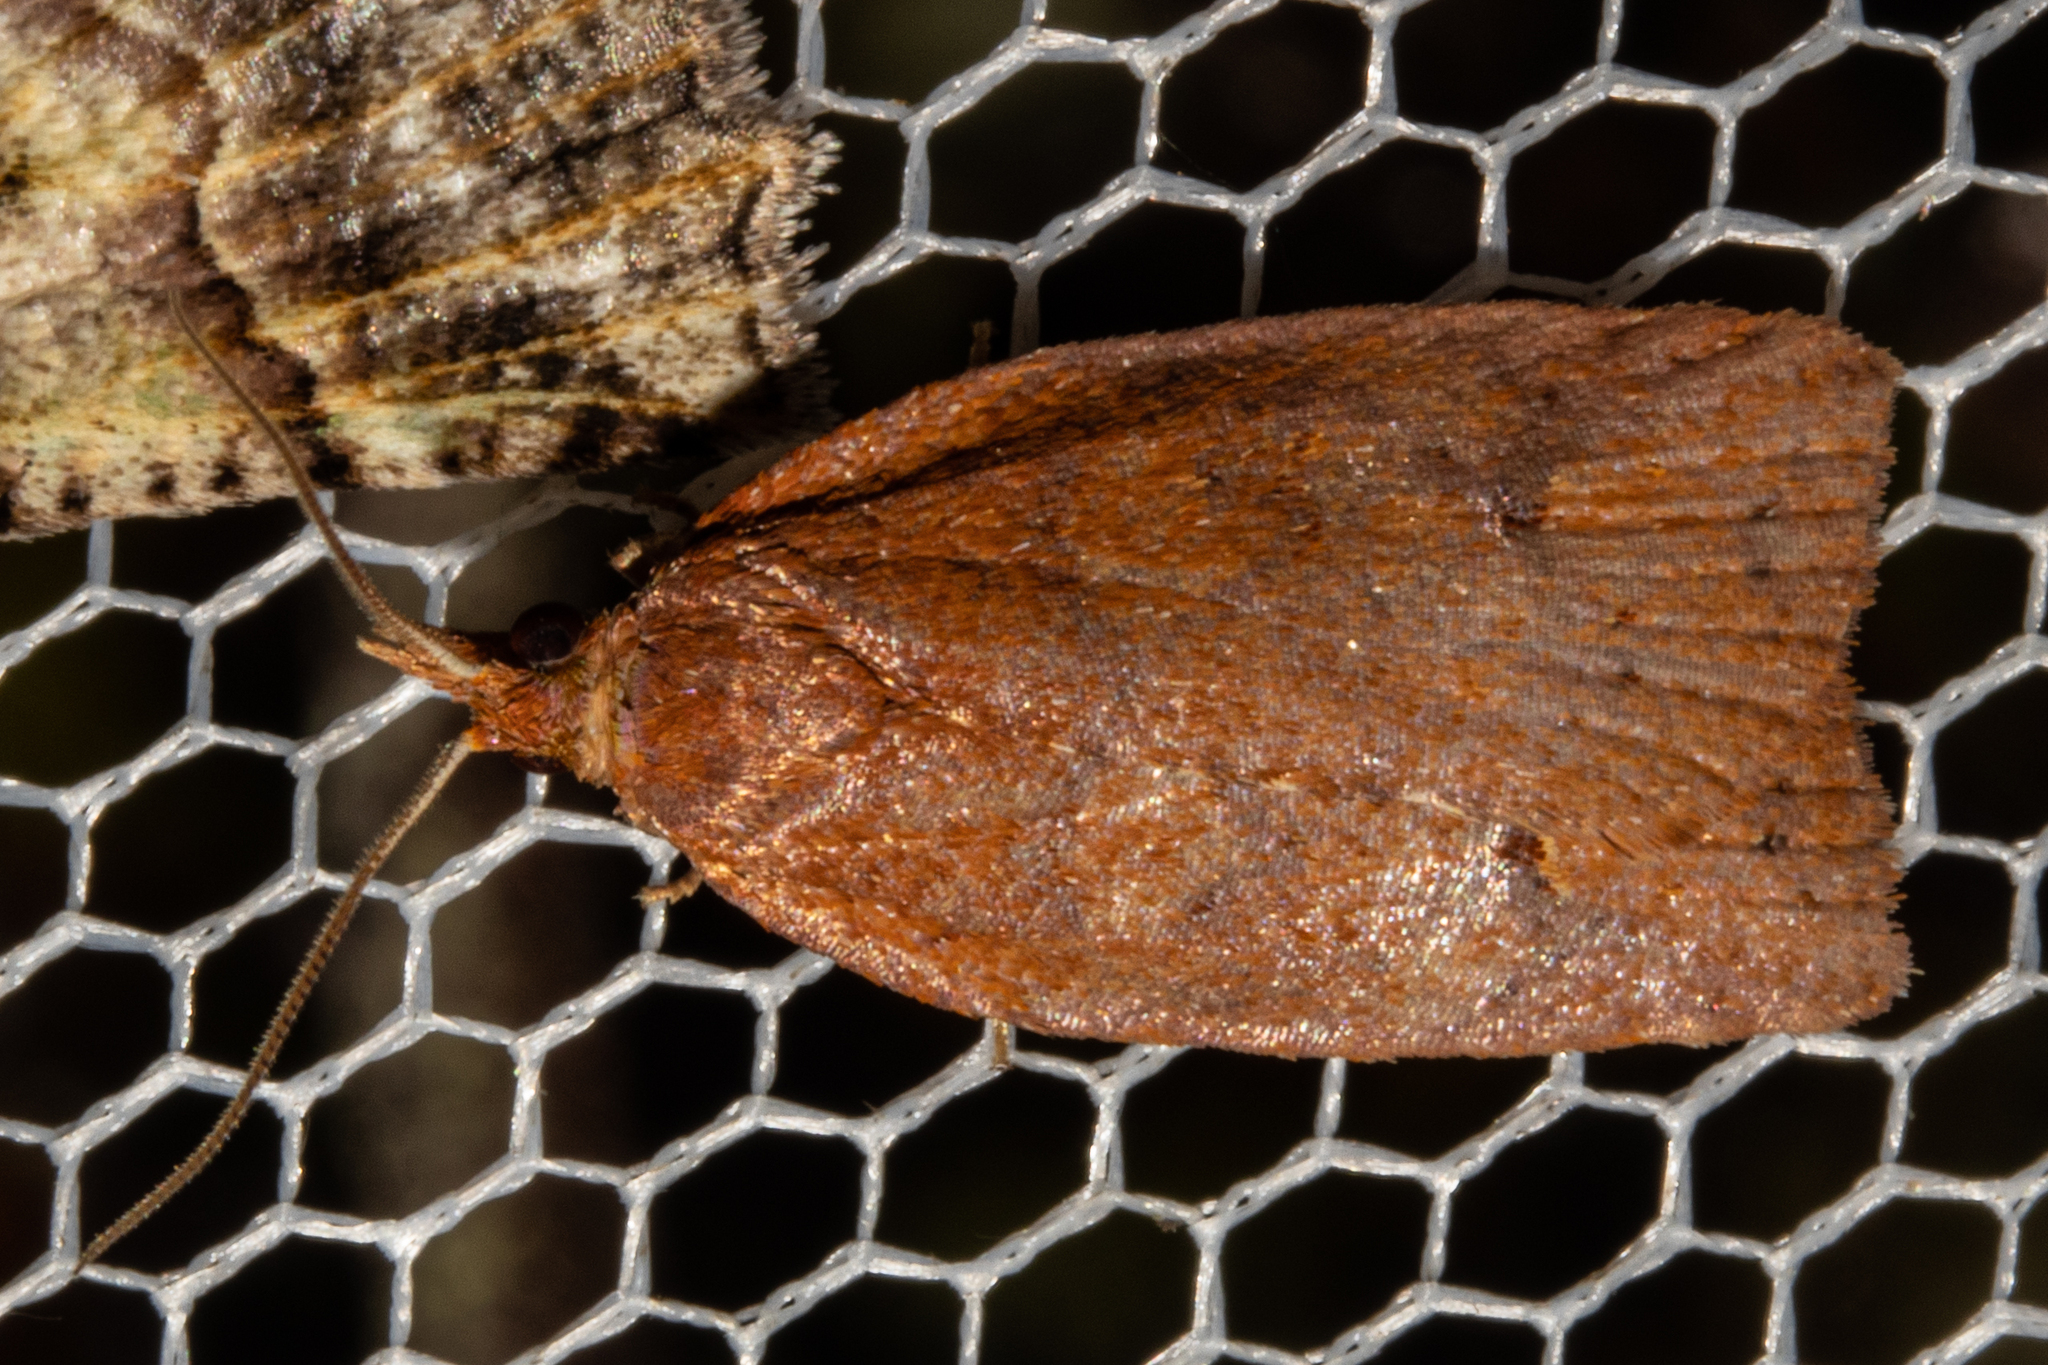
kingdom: Animalia
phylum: Arthropoda
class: Insecta
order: Lepidoptera
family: Tortricidae
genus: Planotortrix
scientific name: Planotortrix flammea
